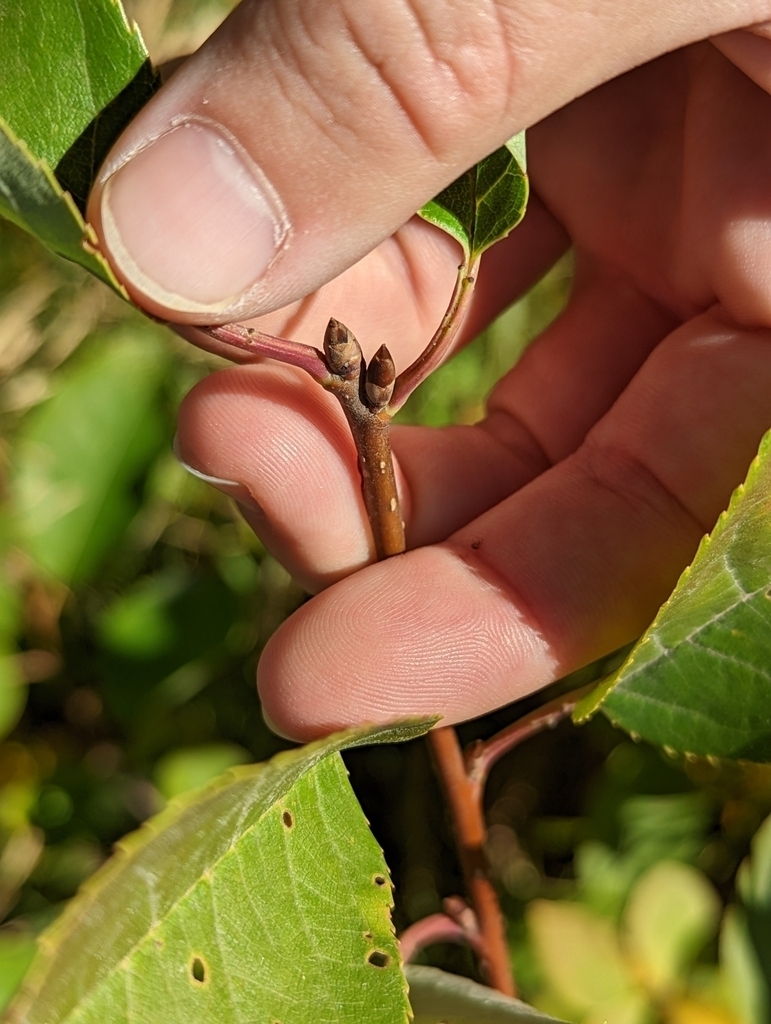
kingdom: Plantae
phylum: Tracheophyta
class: Magnoliopsida
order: Rosales
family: Rosaceae
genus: Prunus
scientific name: Prunus virginiana
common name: Chokecherry
